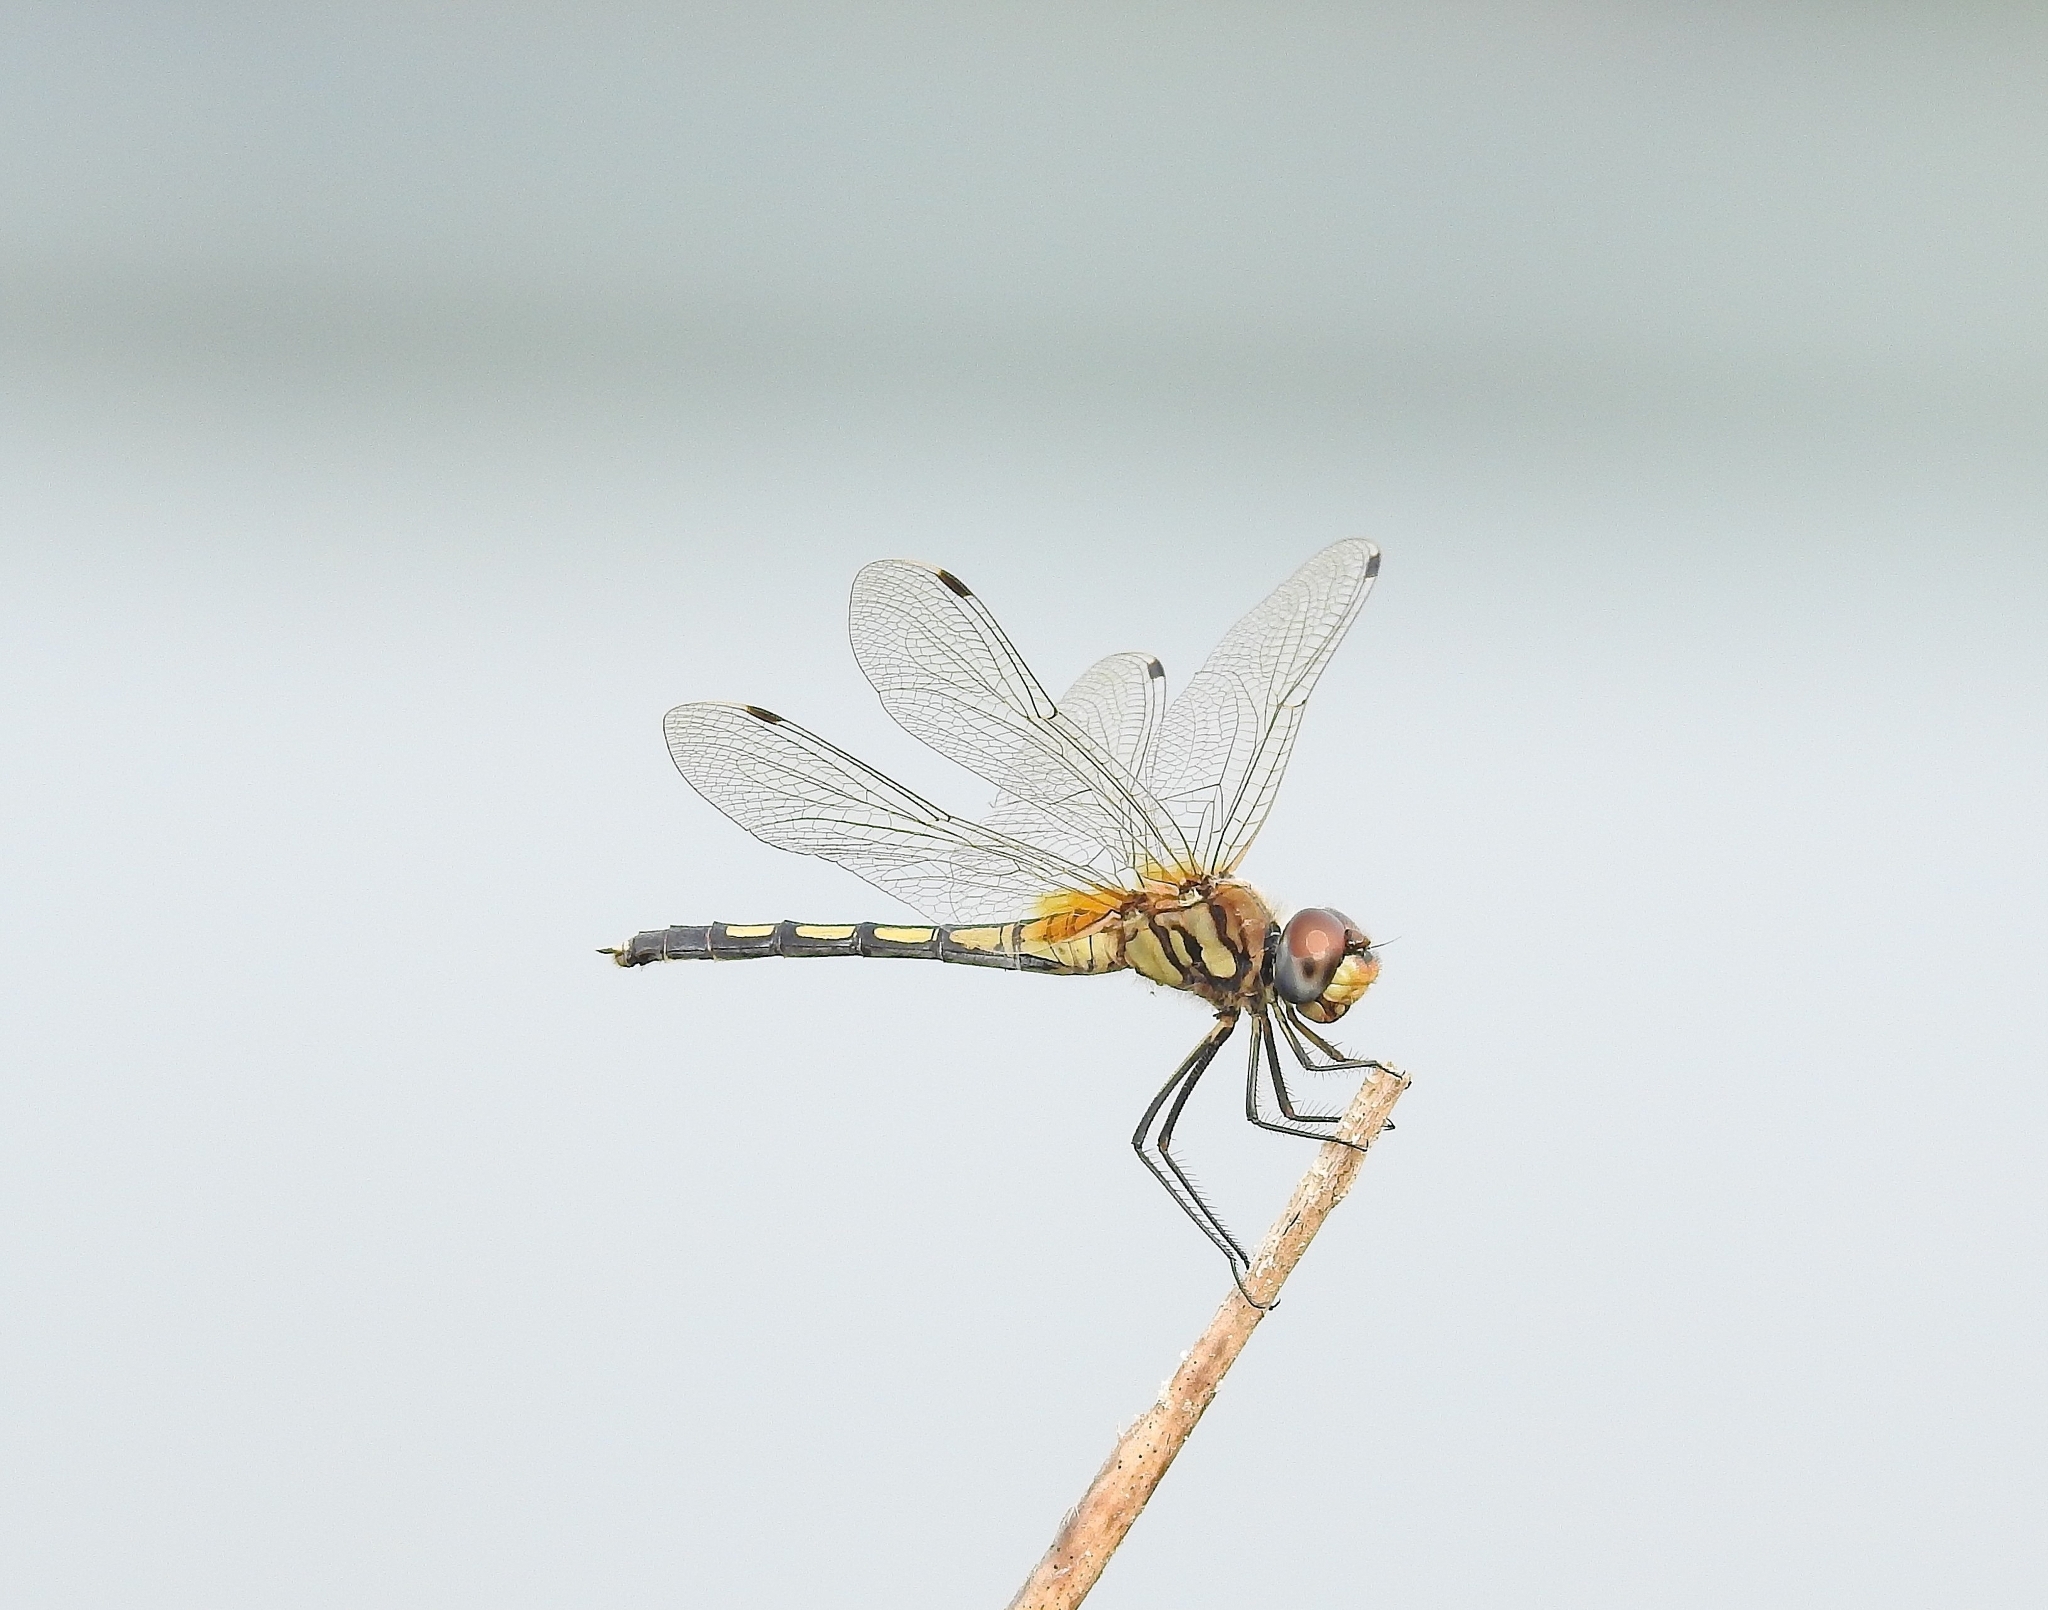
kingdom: Animalia
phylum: Arthropoda
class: Insecta
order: Odonata
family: Libellulidae
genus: Trithemis
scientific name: Trithemis pallidinervis
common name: Dancing dropwing
